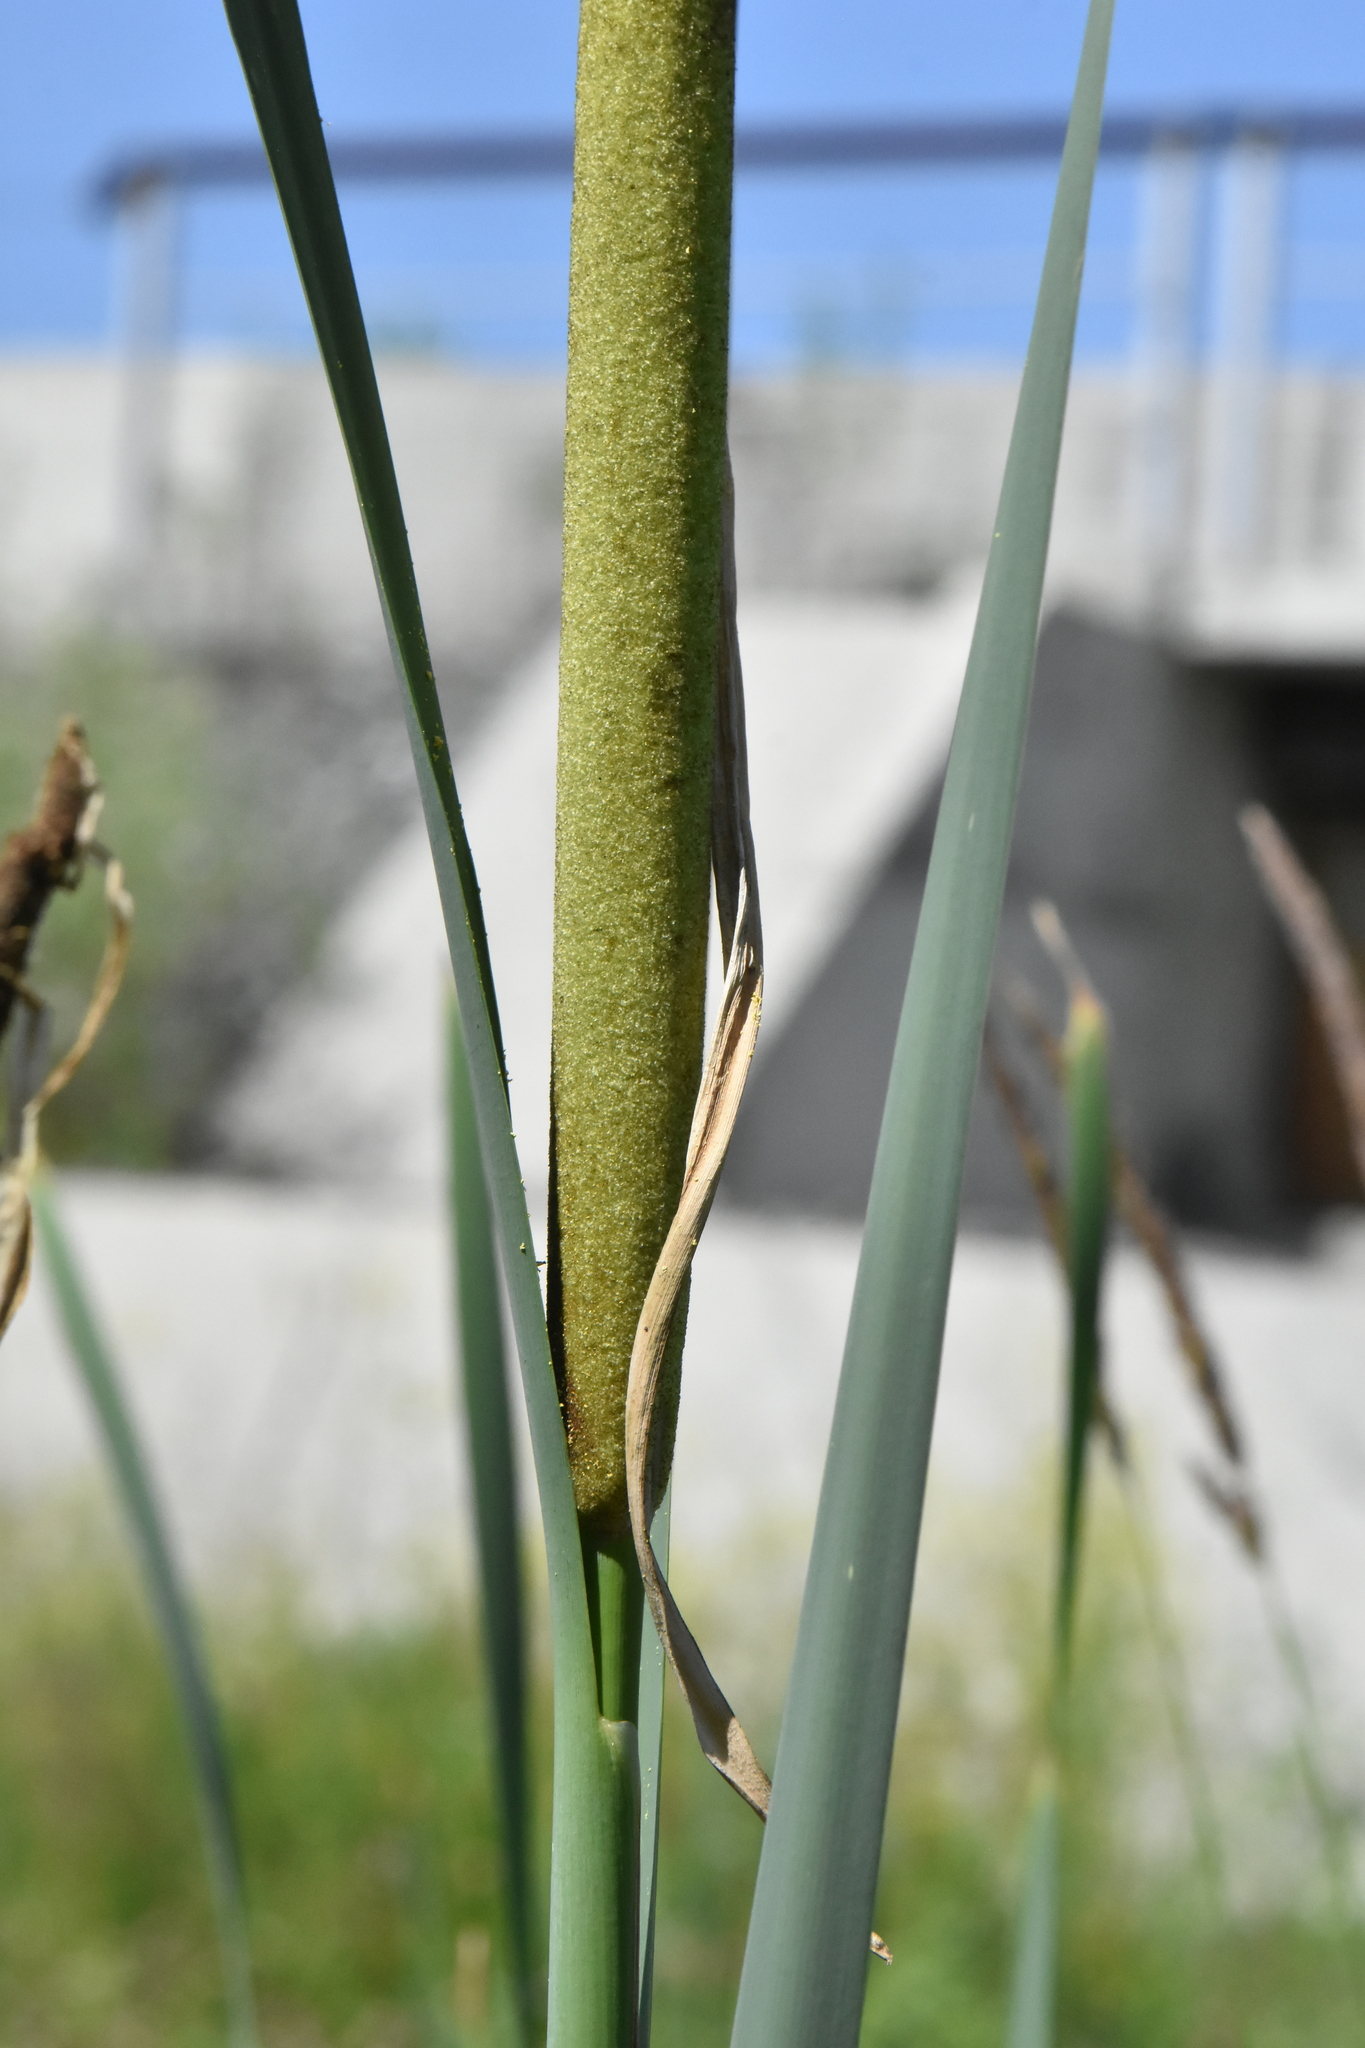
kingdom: Plantae
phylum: Tracheophyta
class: Liliopsida
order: Poales
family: Typhaceae
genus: Typha
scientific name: Typha latifolia
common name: Broadleaf cattail
